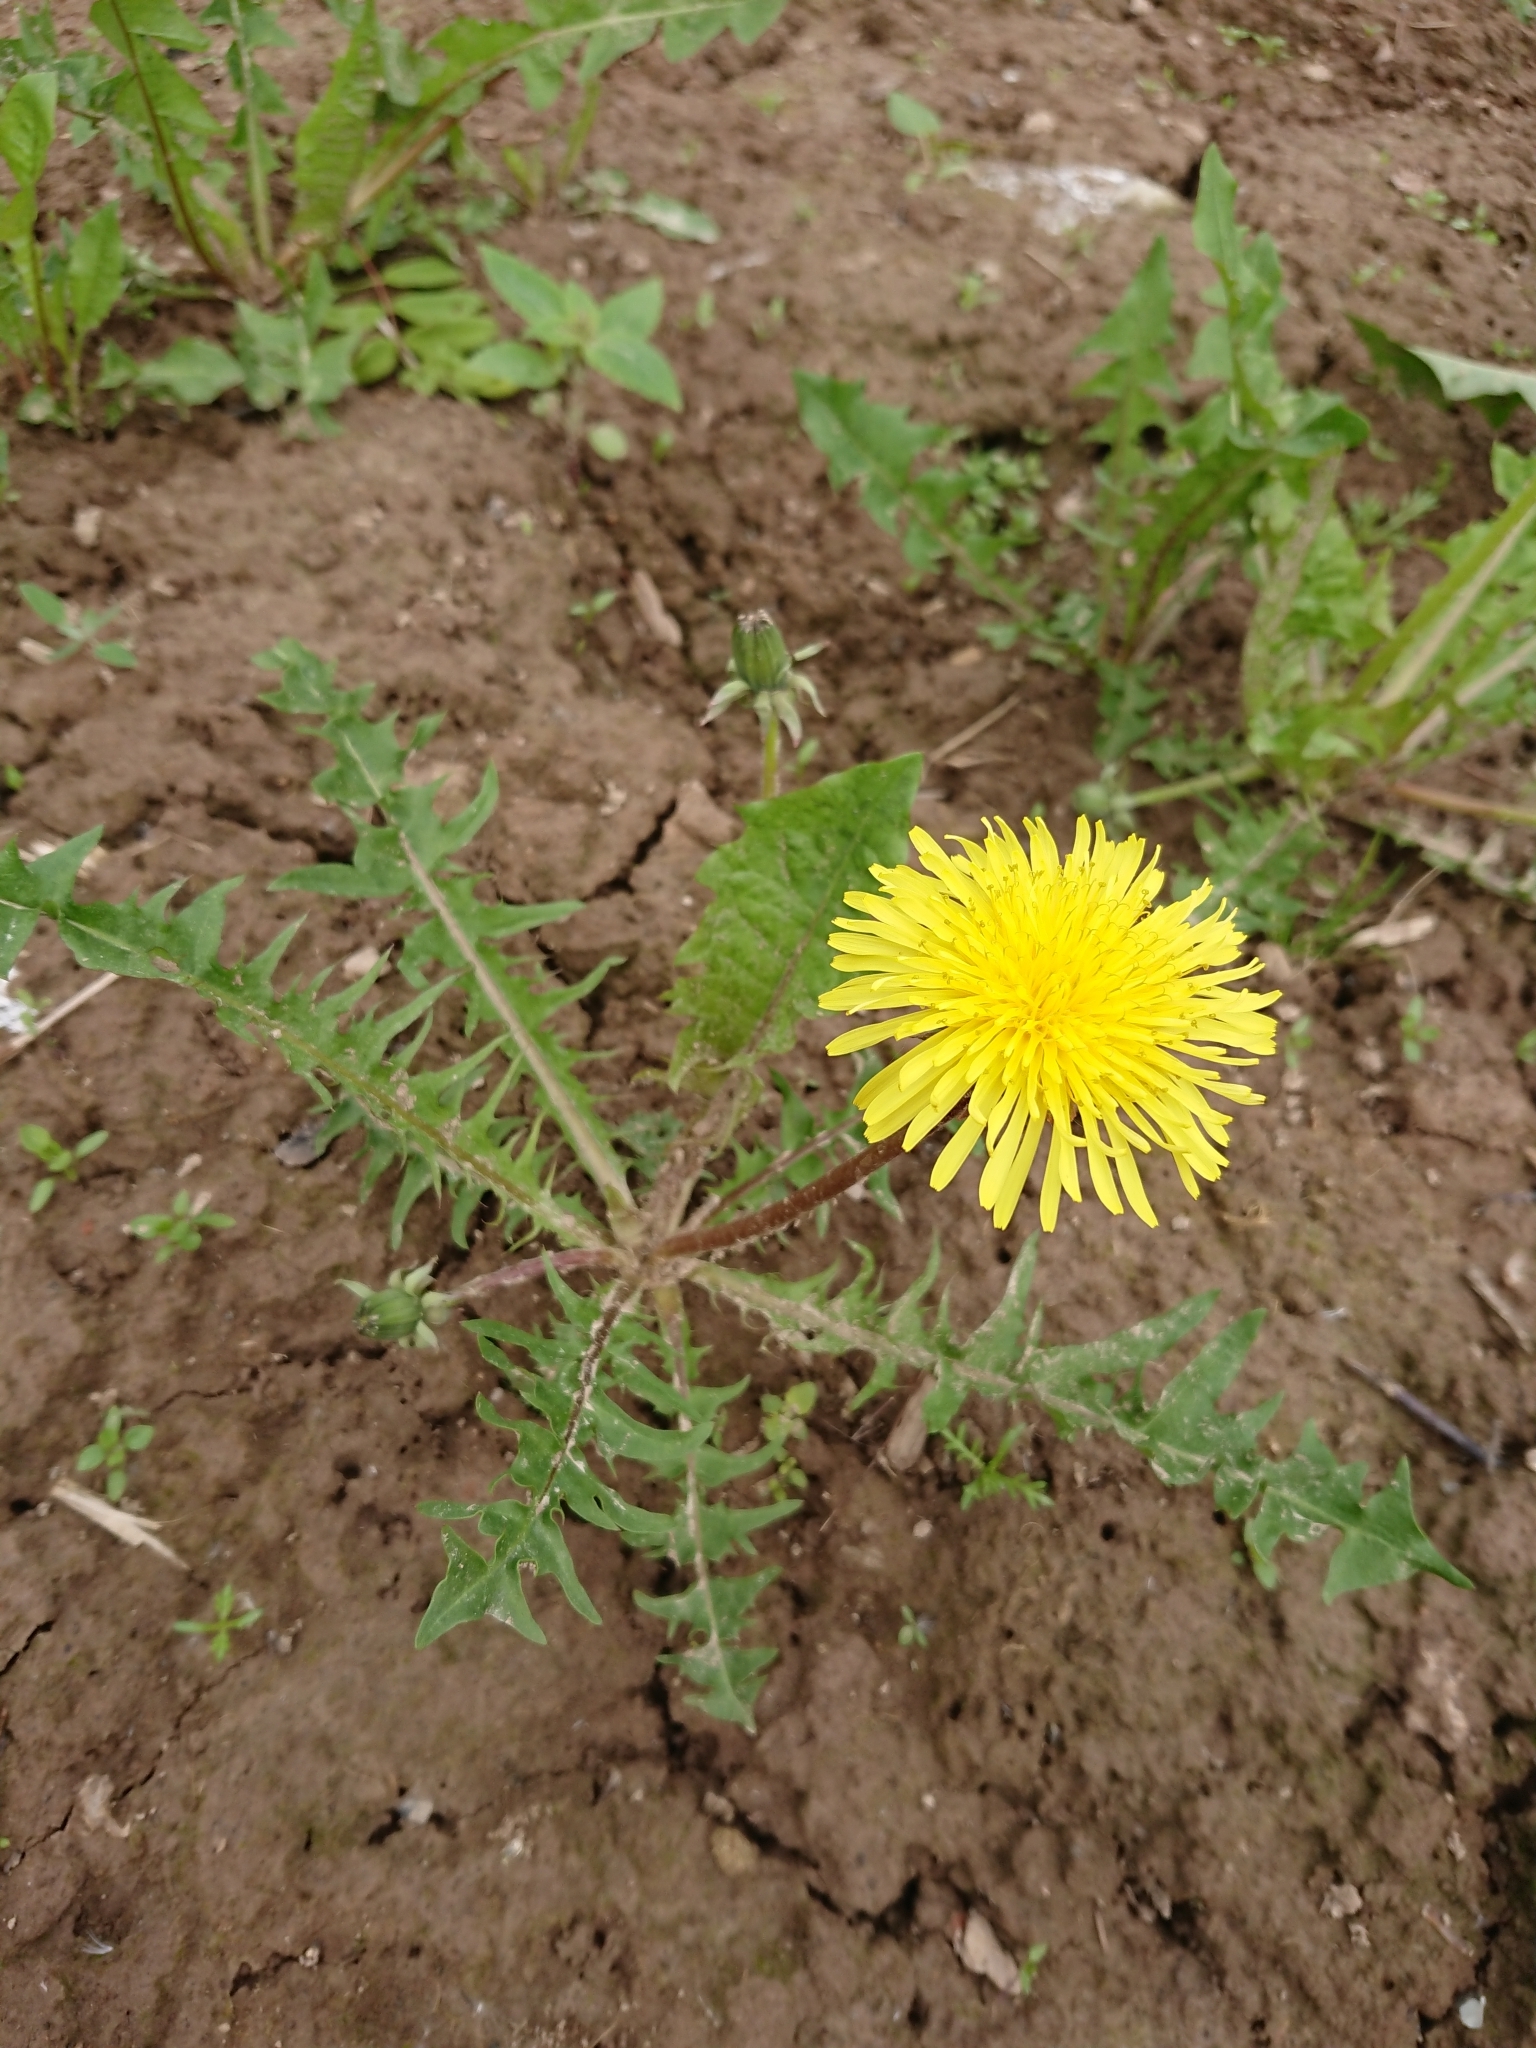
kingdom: Plantae
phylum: Tracheophyta
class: Magnoliopsida
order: Asterales
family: Asteraceae
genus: Taraxacum
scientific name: Taraxacum officinale
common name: Common dandelion
